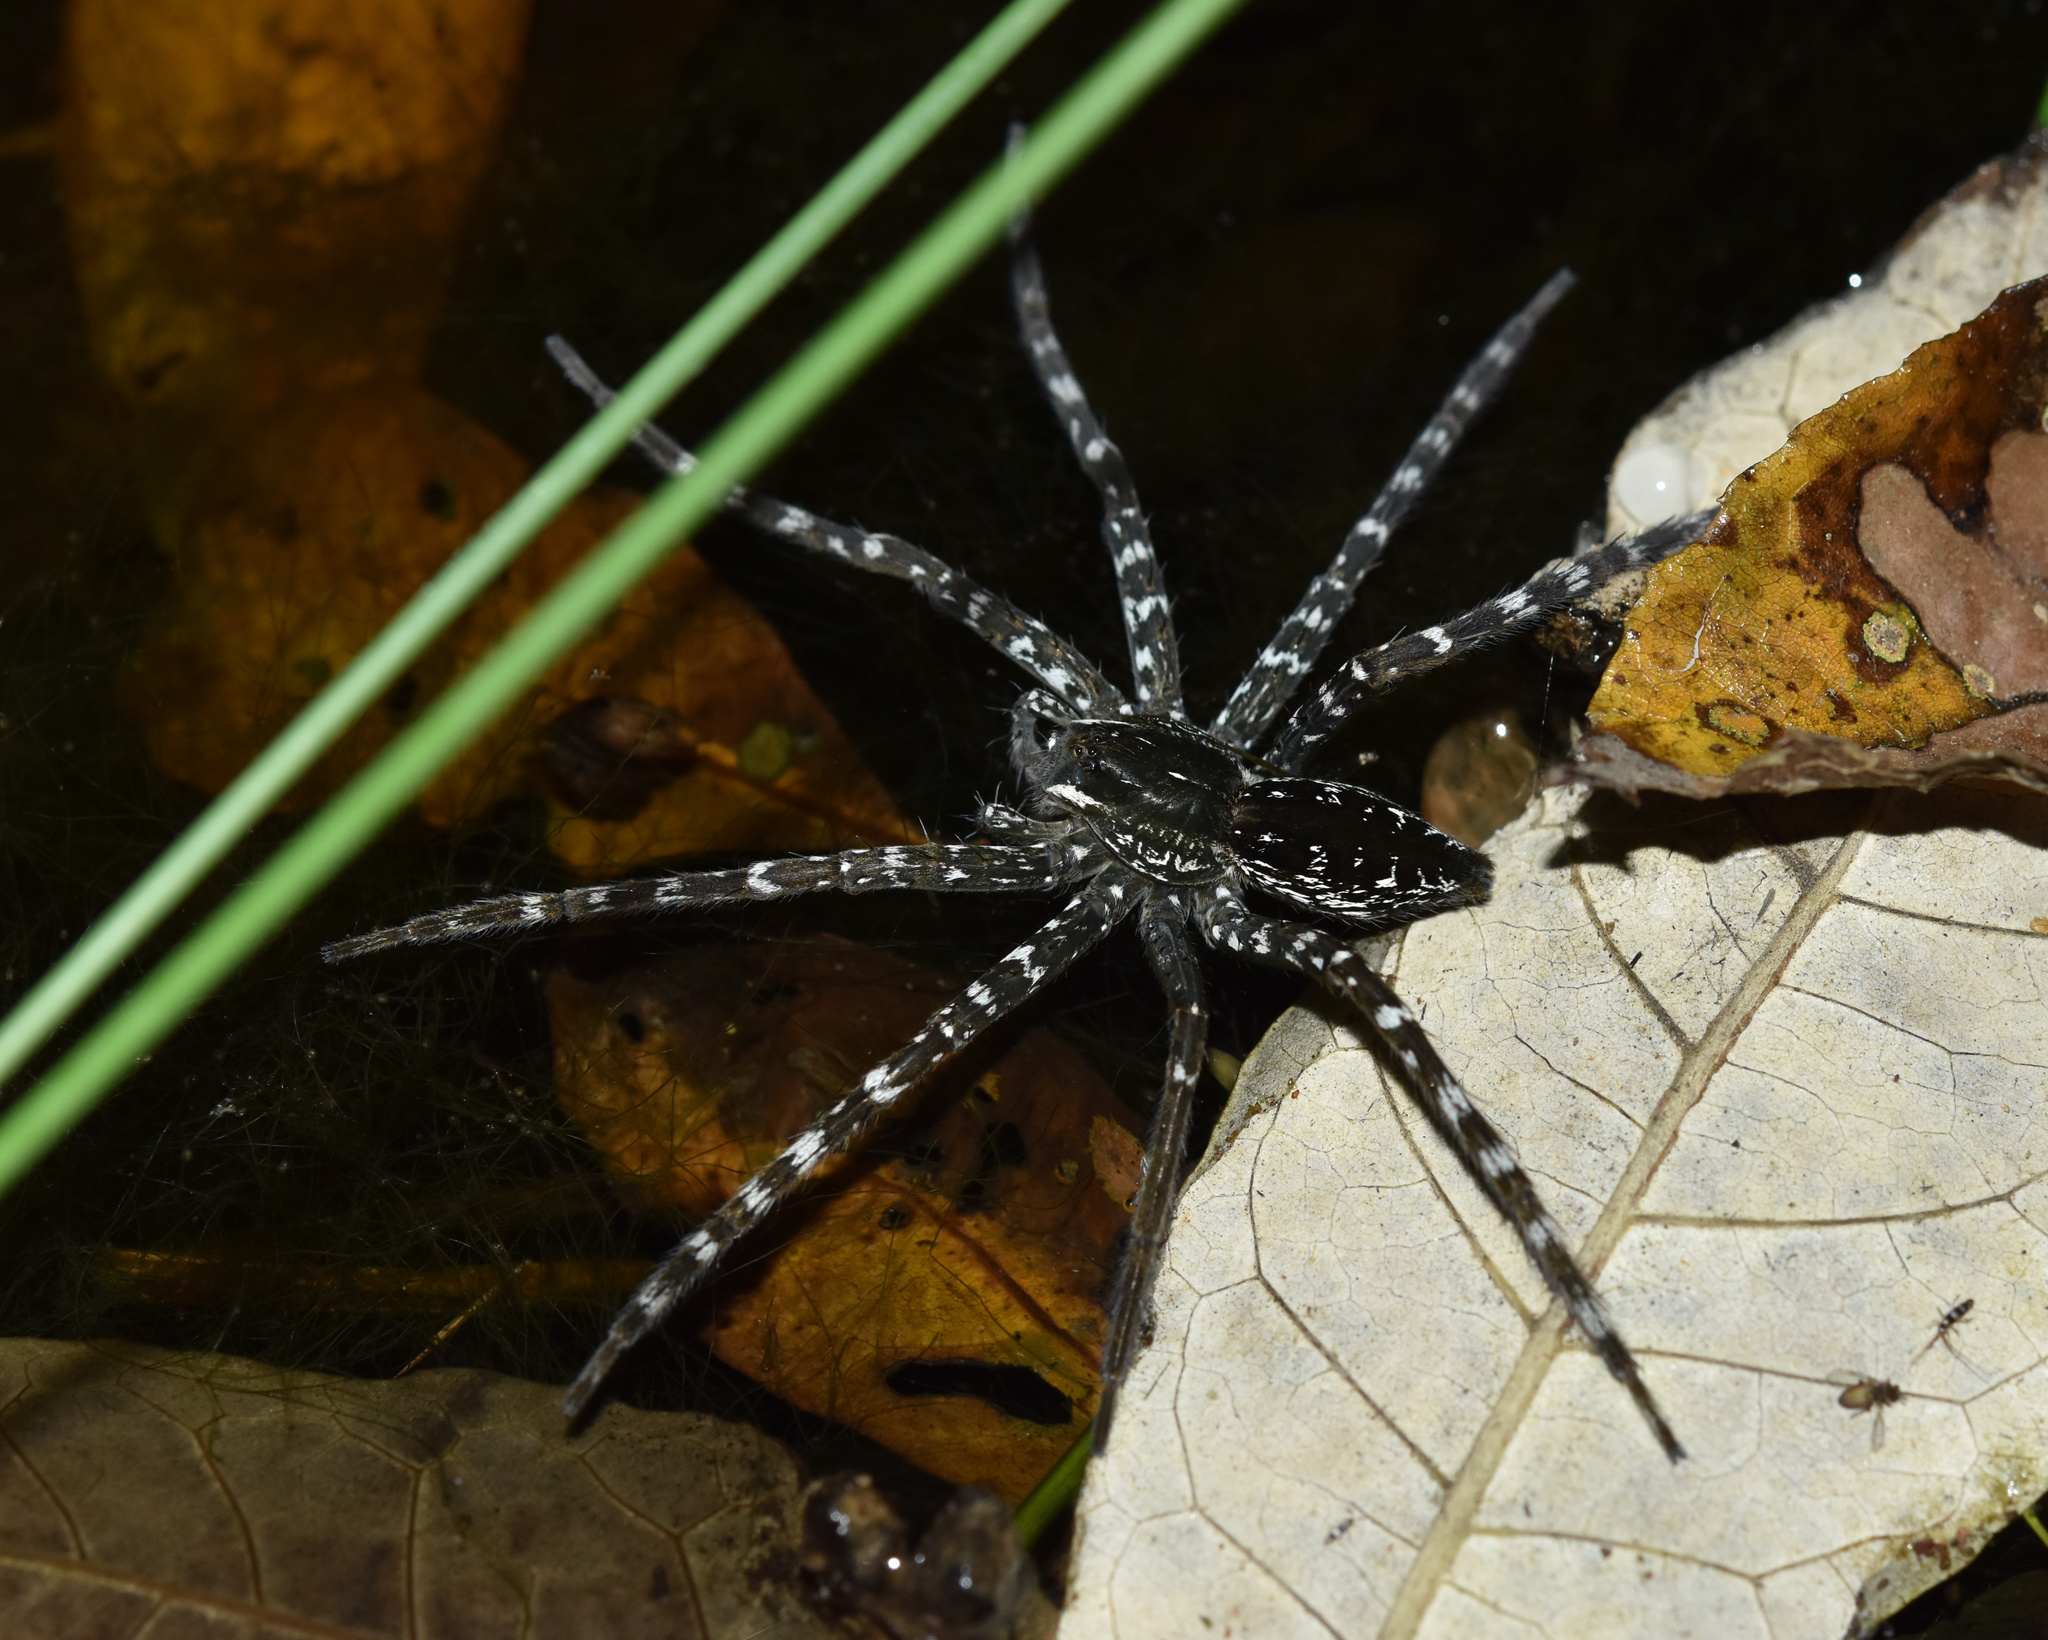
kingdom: Animalia
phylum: Arthropoda
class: Arachnida
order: Araneae
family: Pisauridae
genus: Nilus
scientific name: Nilus curtus
